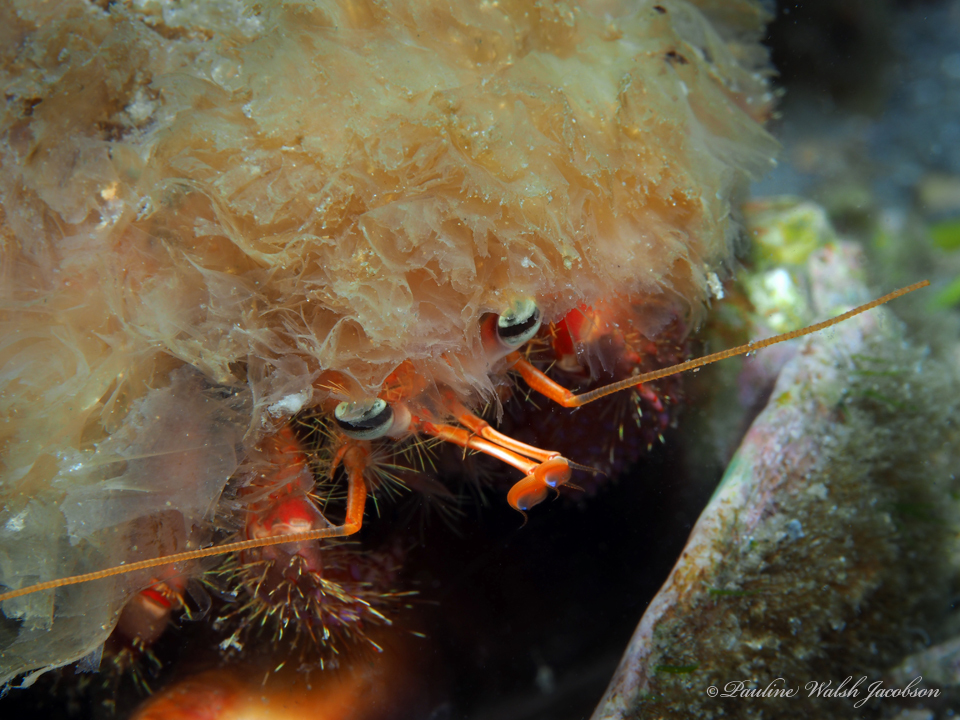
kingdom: Animalia
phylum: Arthropoda
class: Malacostraca
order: Decapoda
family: Diogenidae
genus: Dardanus
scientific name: Dardanus fucosus
